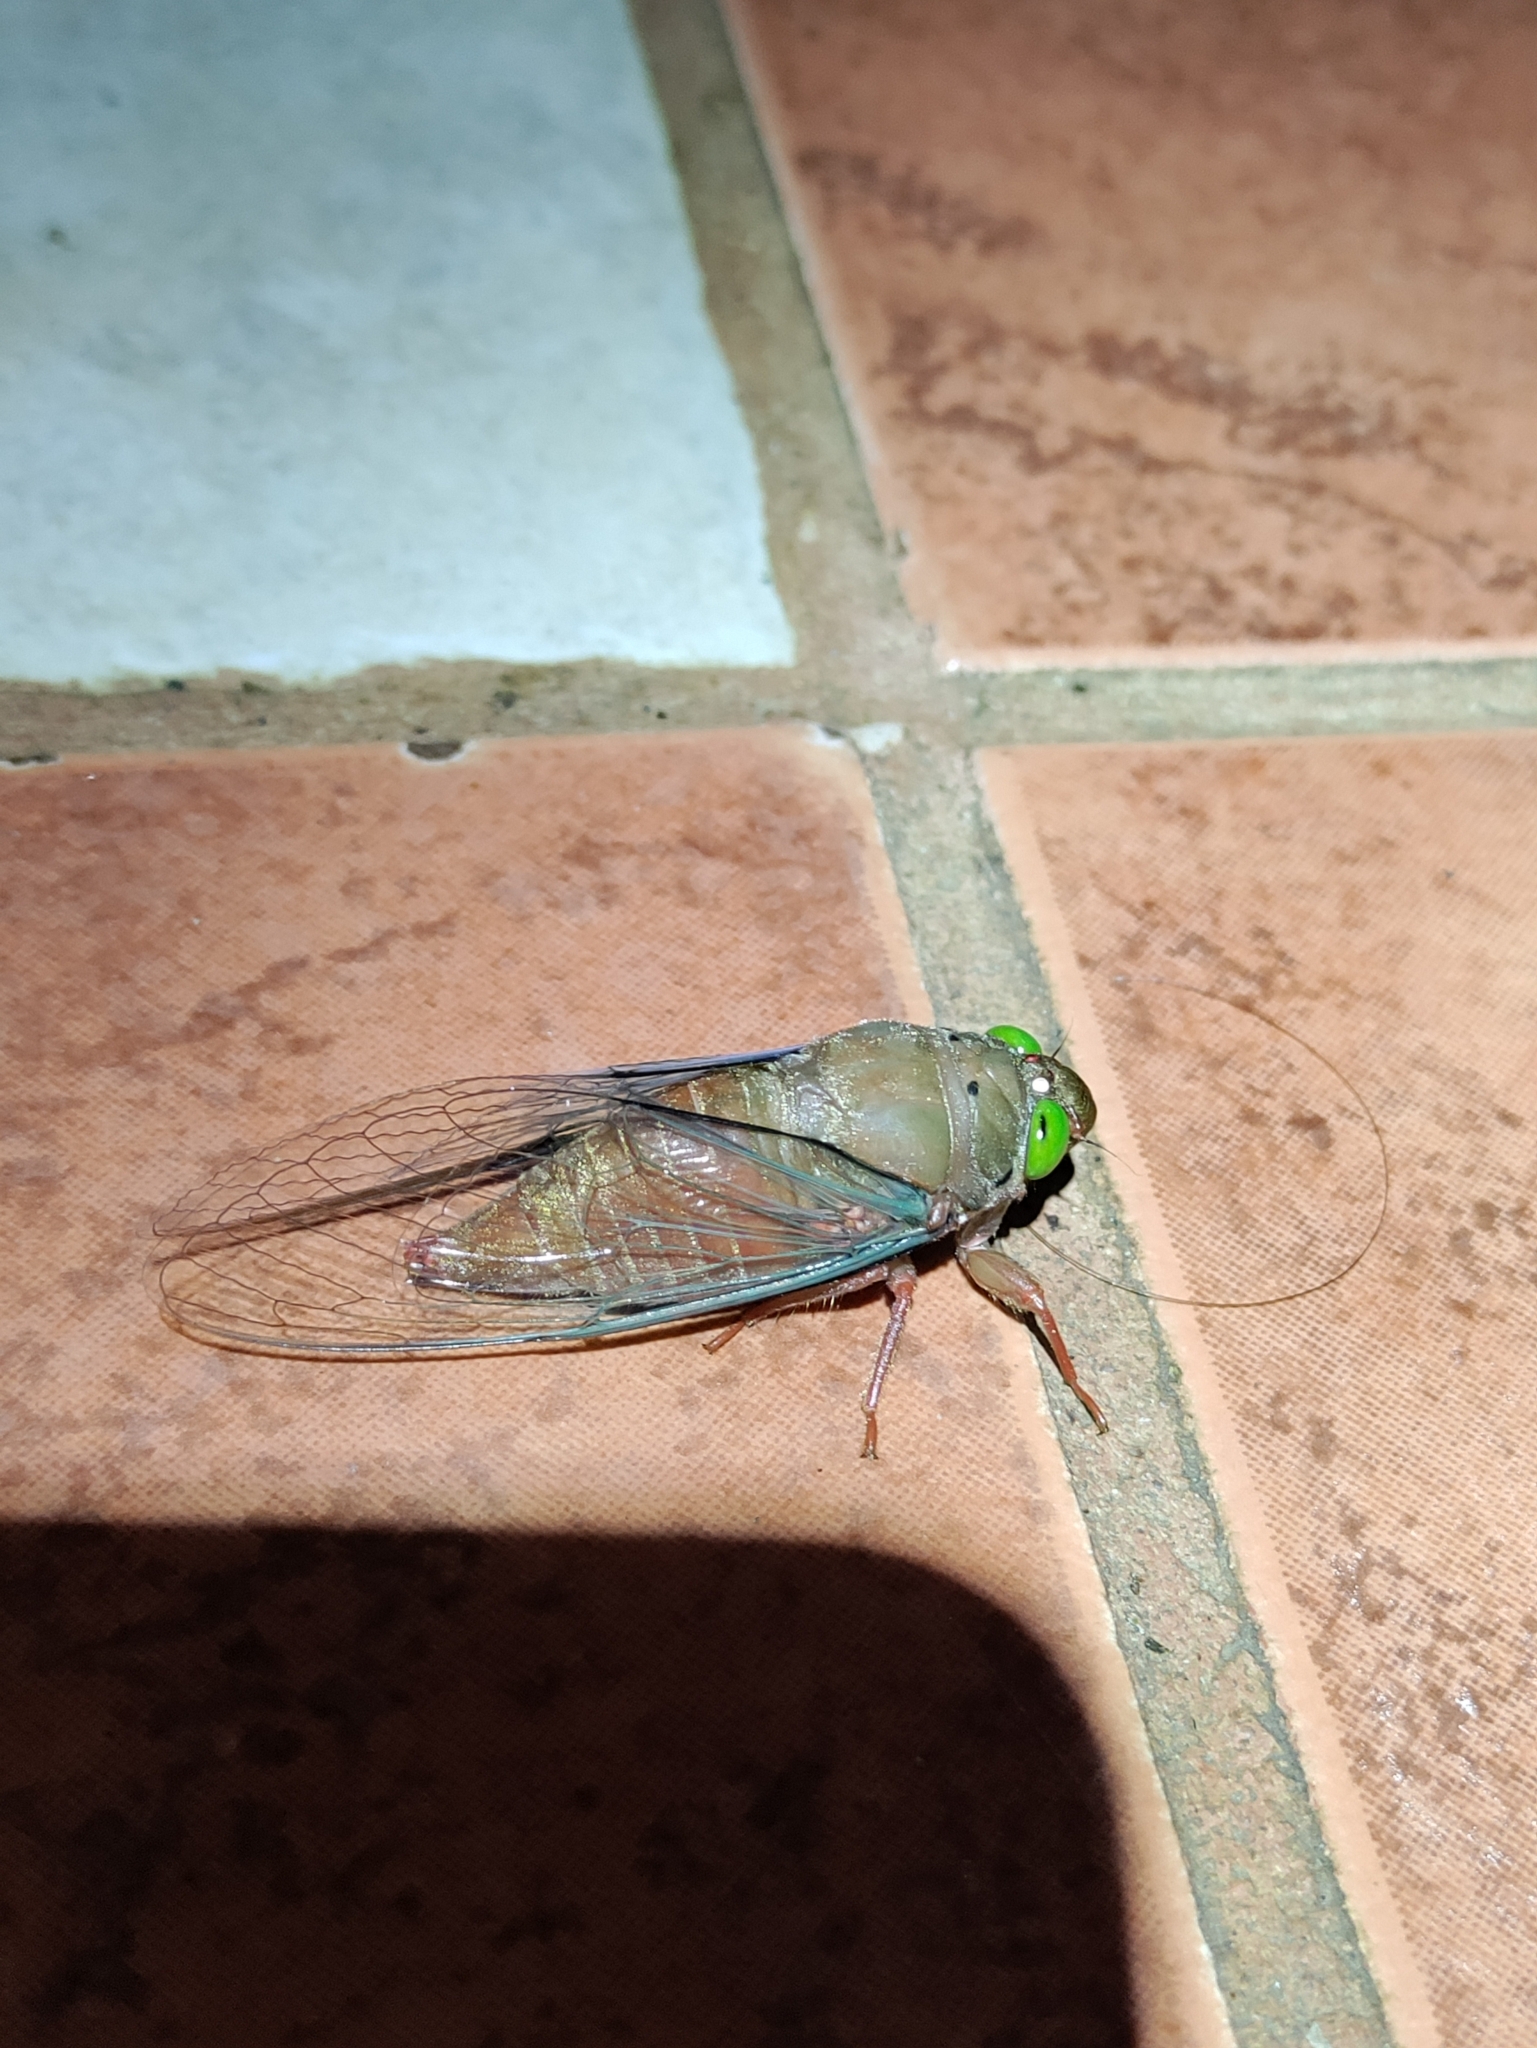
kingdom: Animalia
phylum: Arthropoda
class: Insecta
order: Hemiptera
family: Cicadidae
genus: Carineta
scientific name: Carineta rufescens
